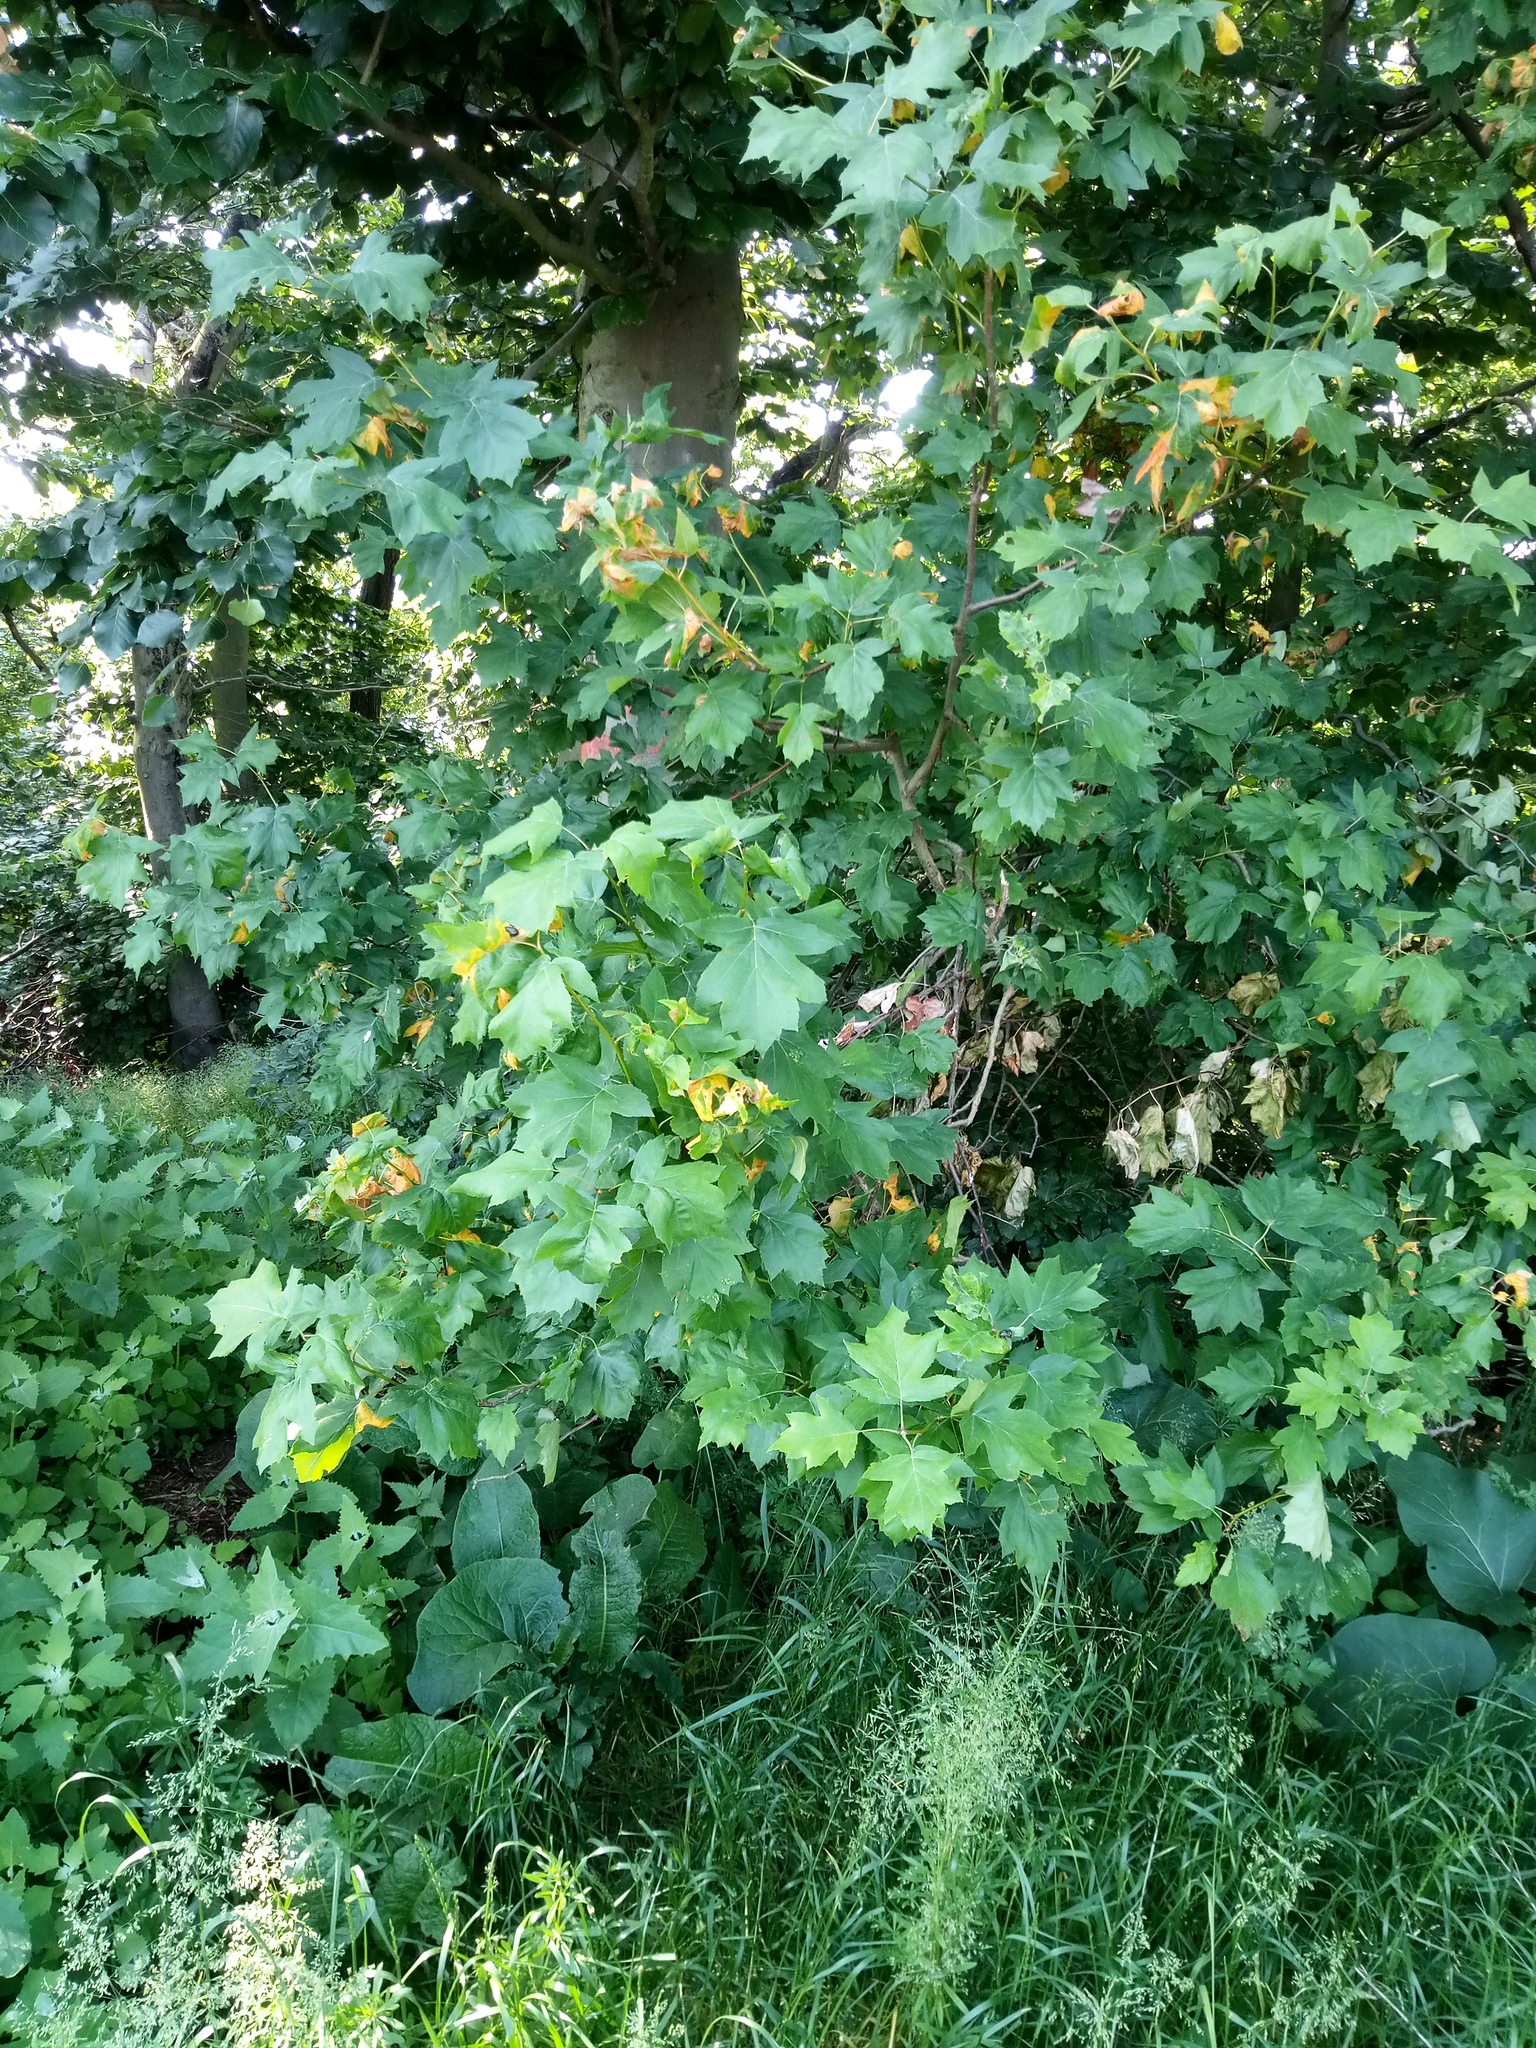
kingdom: Plantae
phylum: Tracheophyta
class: Magnoliopsida
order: Rosales
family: Rosaceae
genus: Torminalis
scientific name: Torminalis glaberrima
